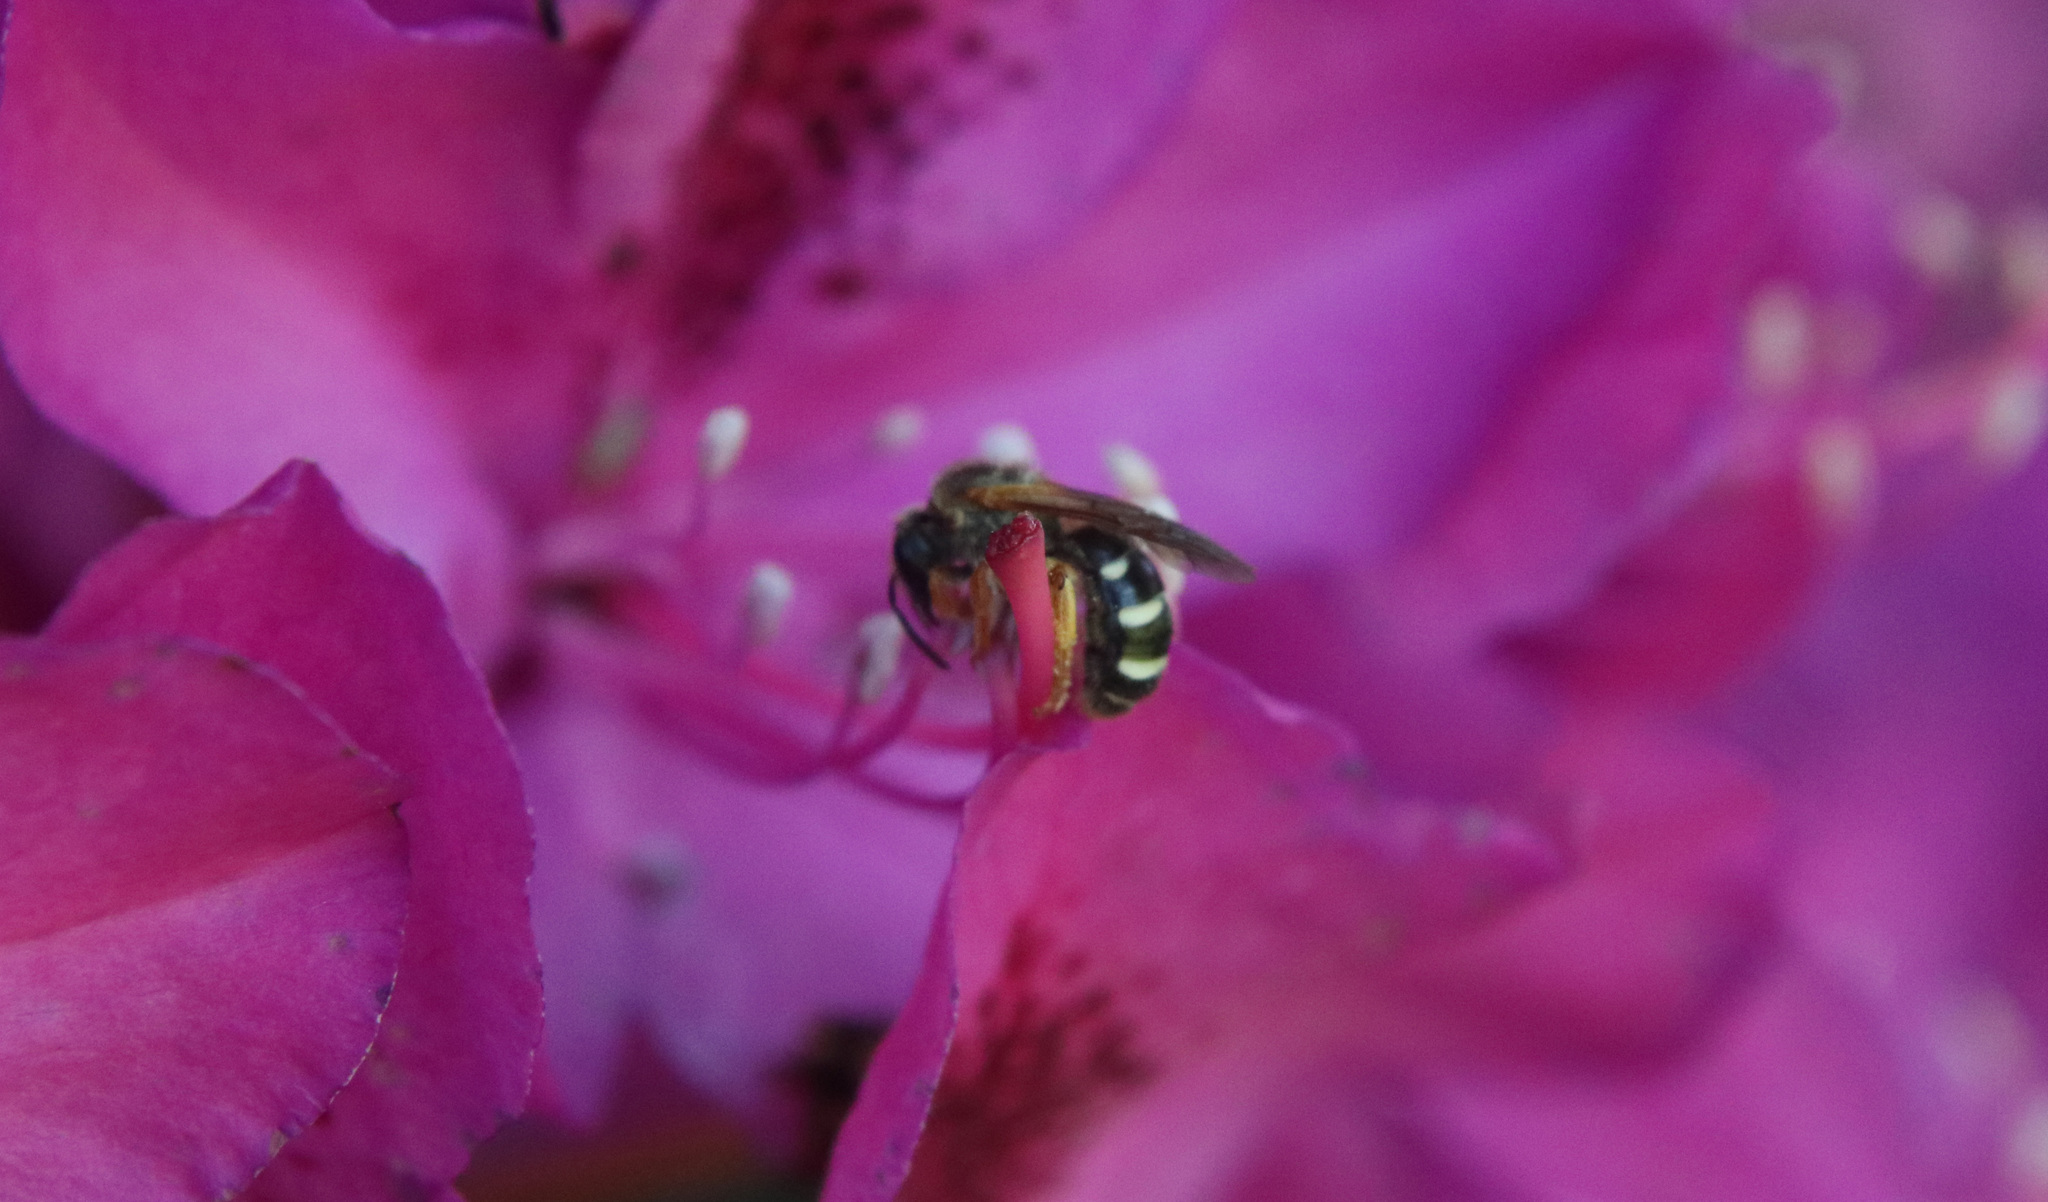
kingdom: Animalia
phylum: Arthropoda
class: Insecta
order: Hymenoptera
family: Halictidae
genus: Ruizantheda
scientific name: Ruizantheda proxima
